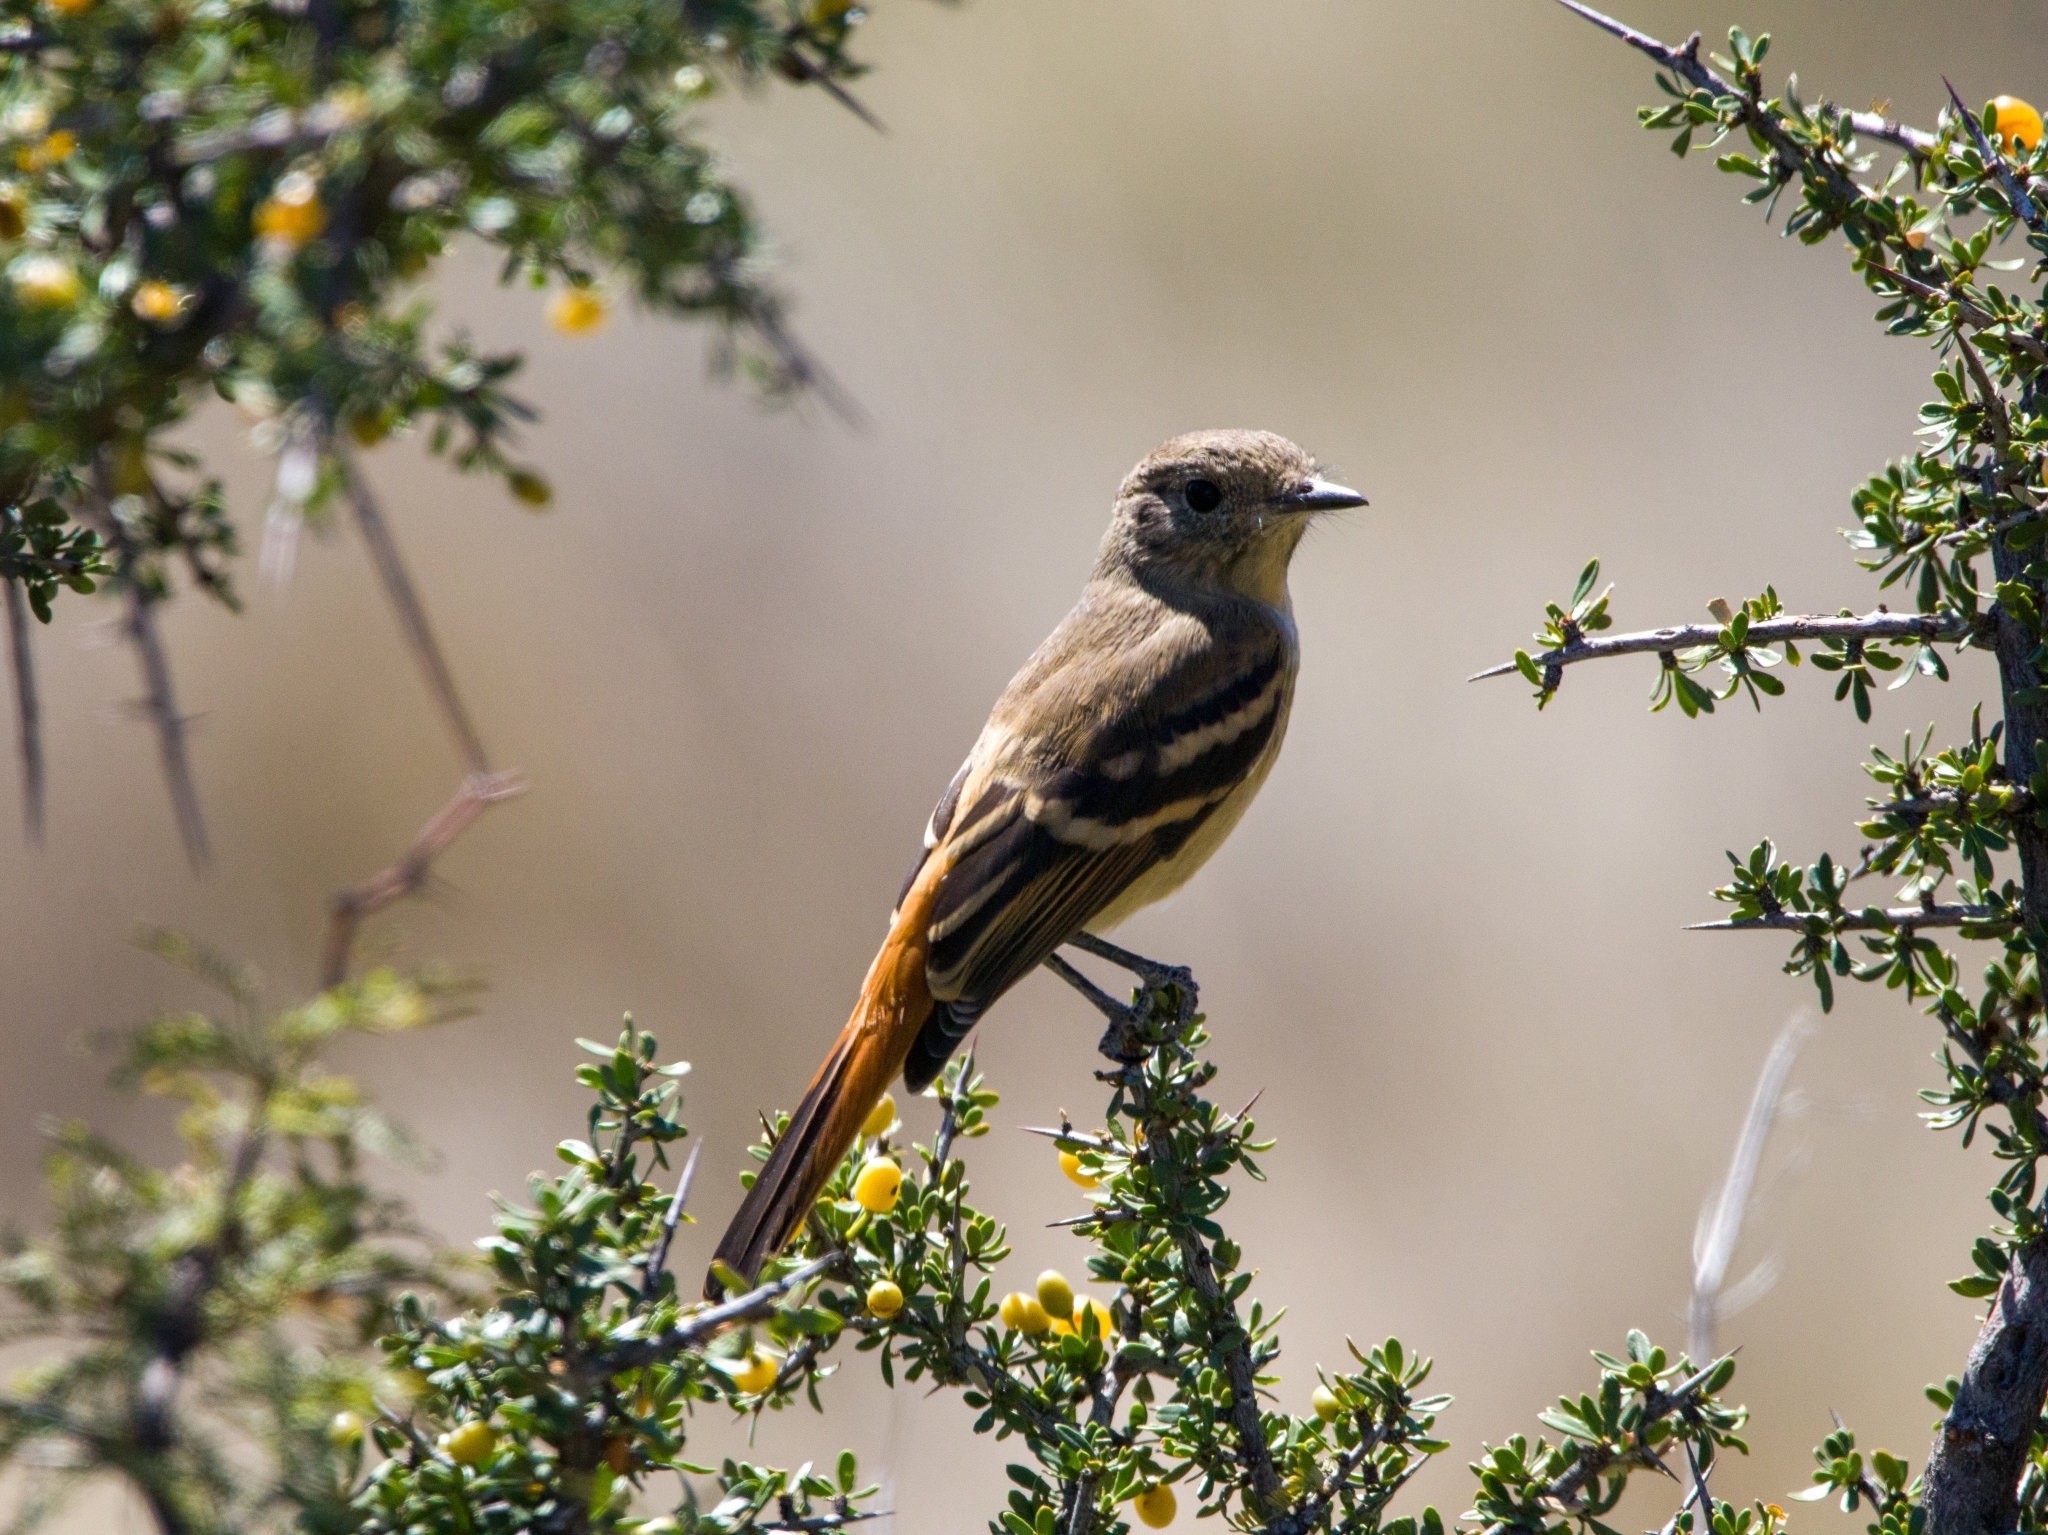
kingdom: Animalia
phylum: Chordata
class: Aves
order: Passeriformes
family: Tyrannidae
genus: Knipolegus
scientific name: Knipolegus aterrimus
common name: White-winged black tyrant
